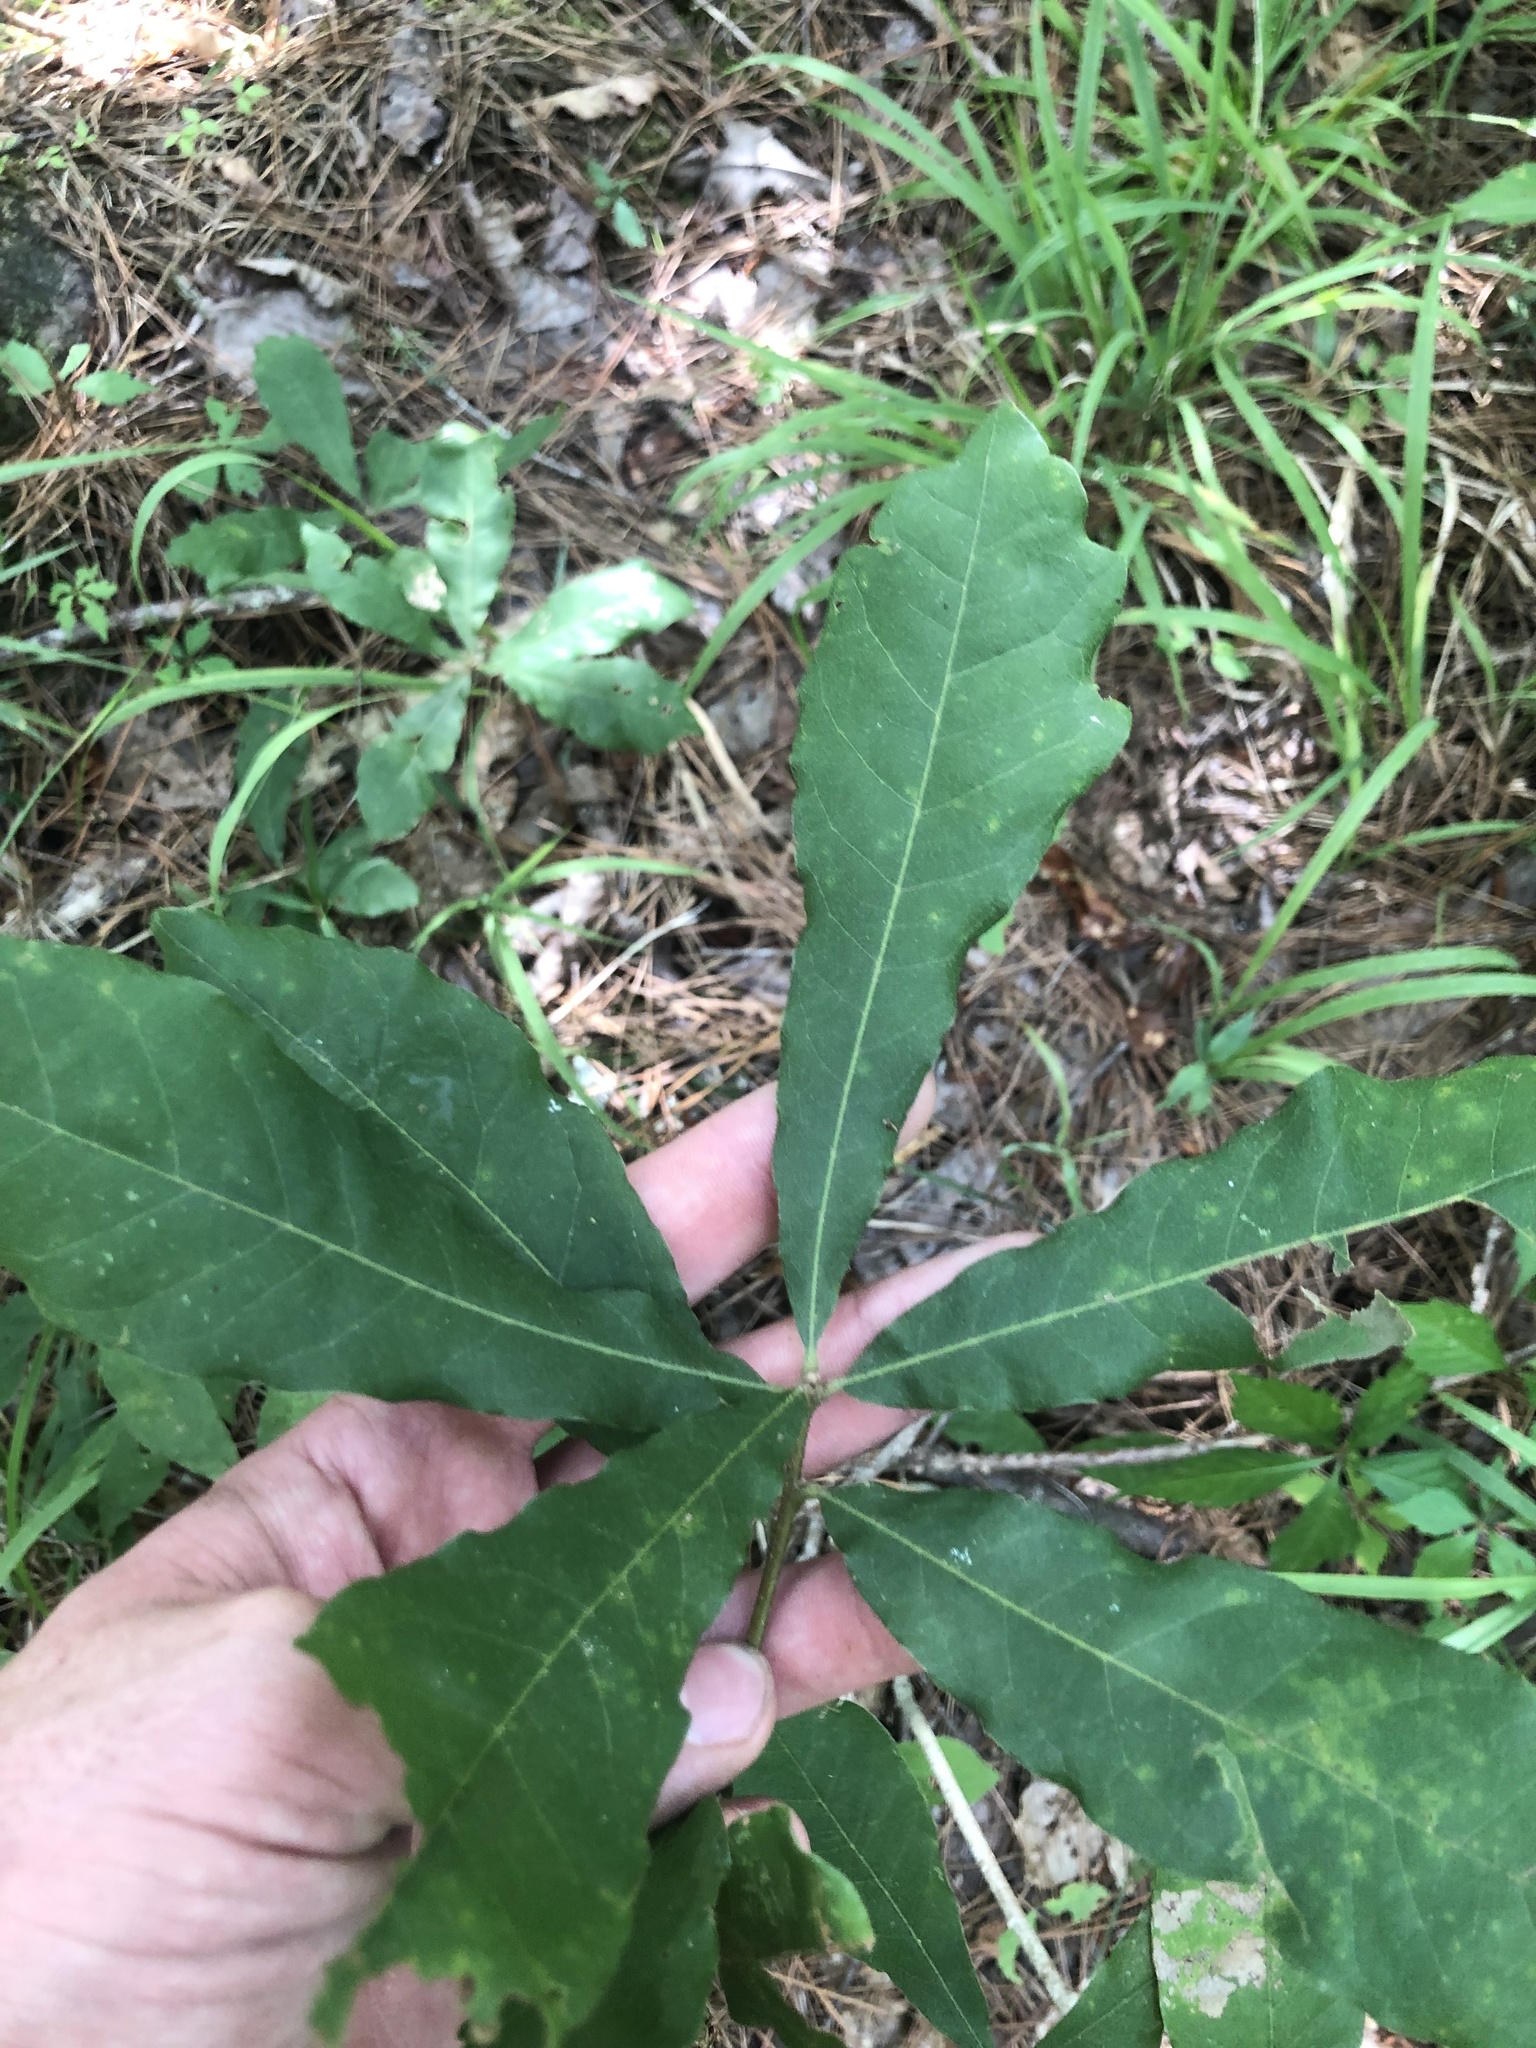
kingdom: Plantae
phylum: Tracheophyta
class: Magnoliopsida
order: Fagales
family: Fagaceae
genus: Quercus
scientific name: Quercus sinuata
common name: Durand oak
